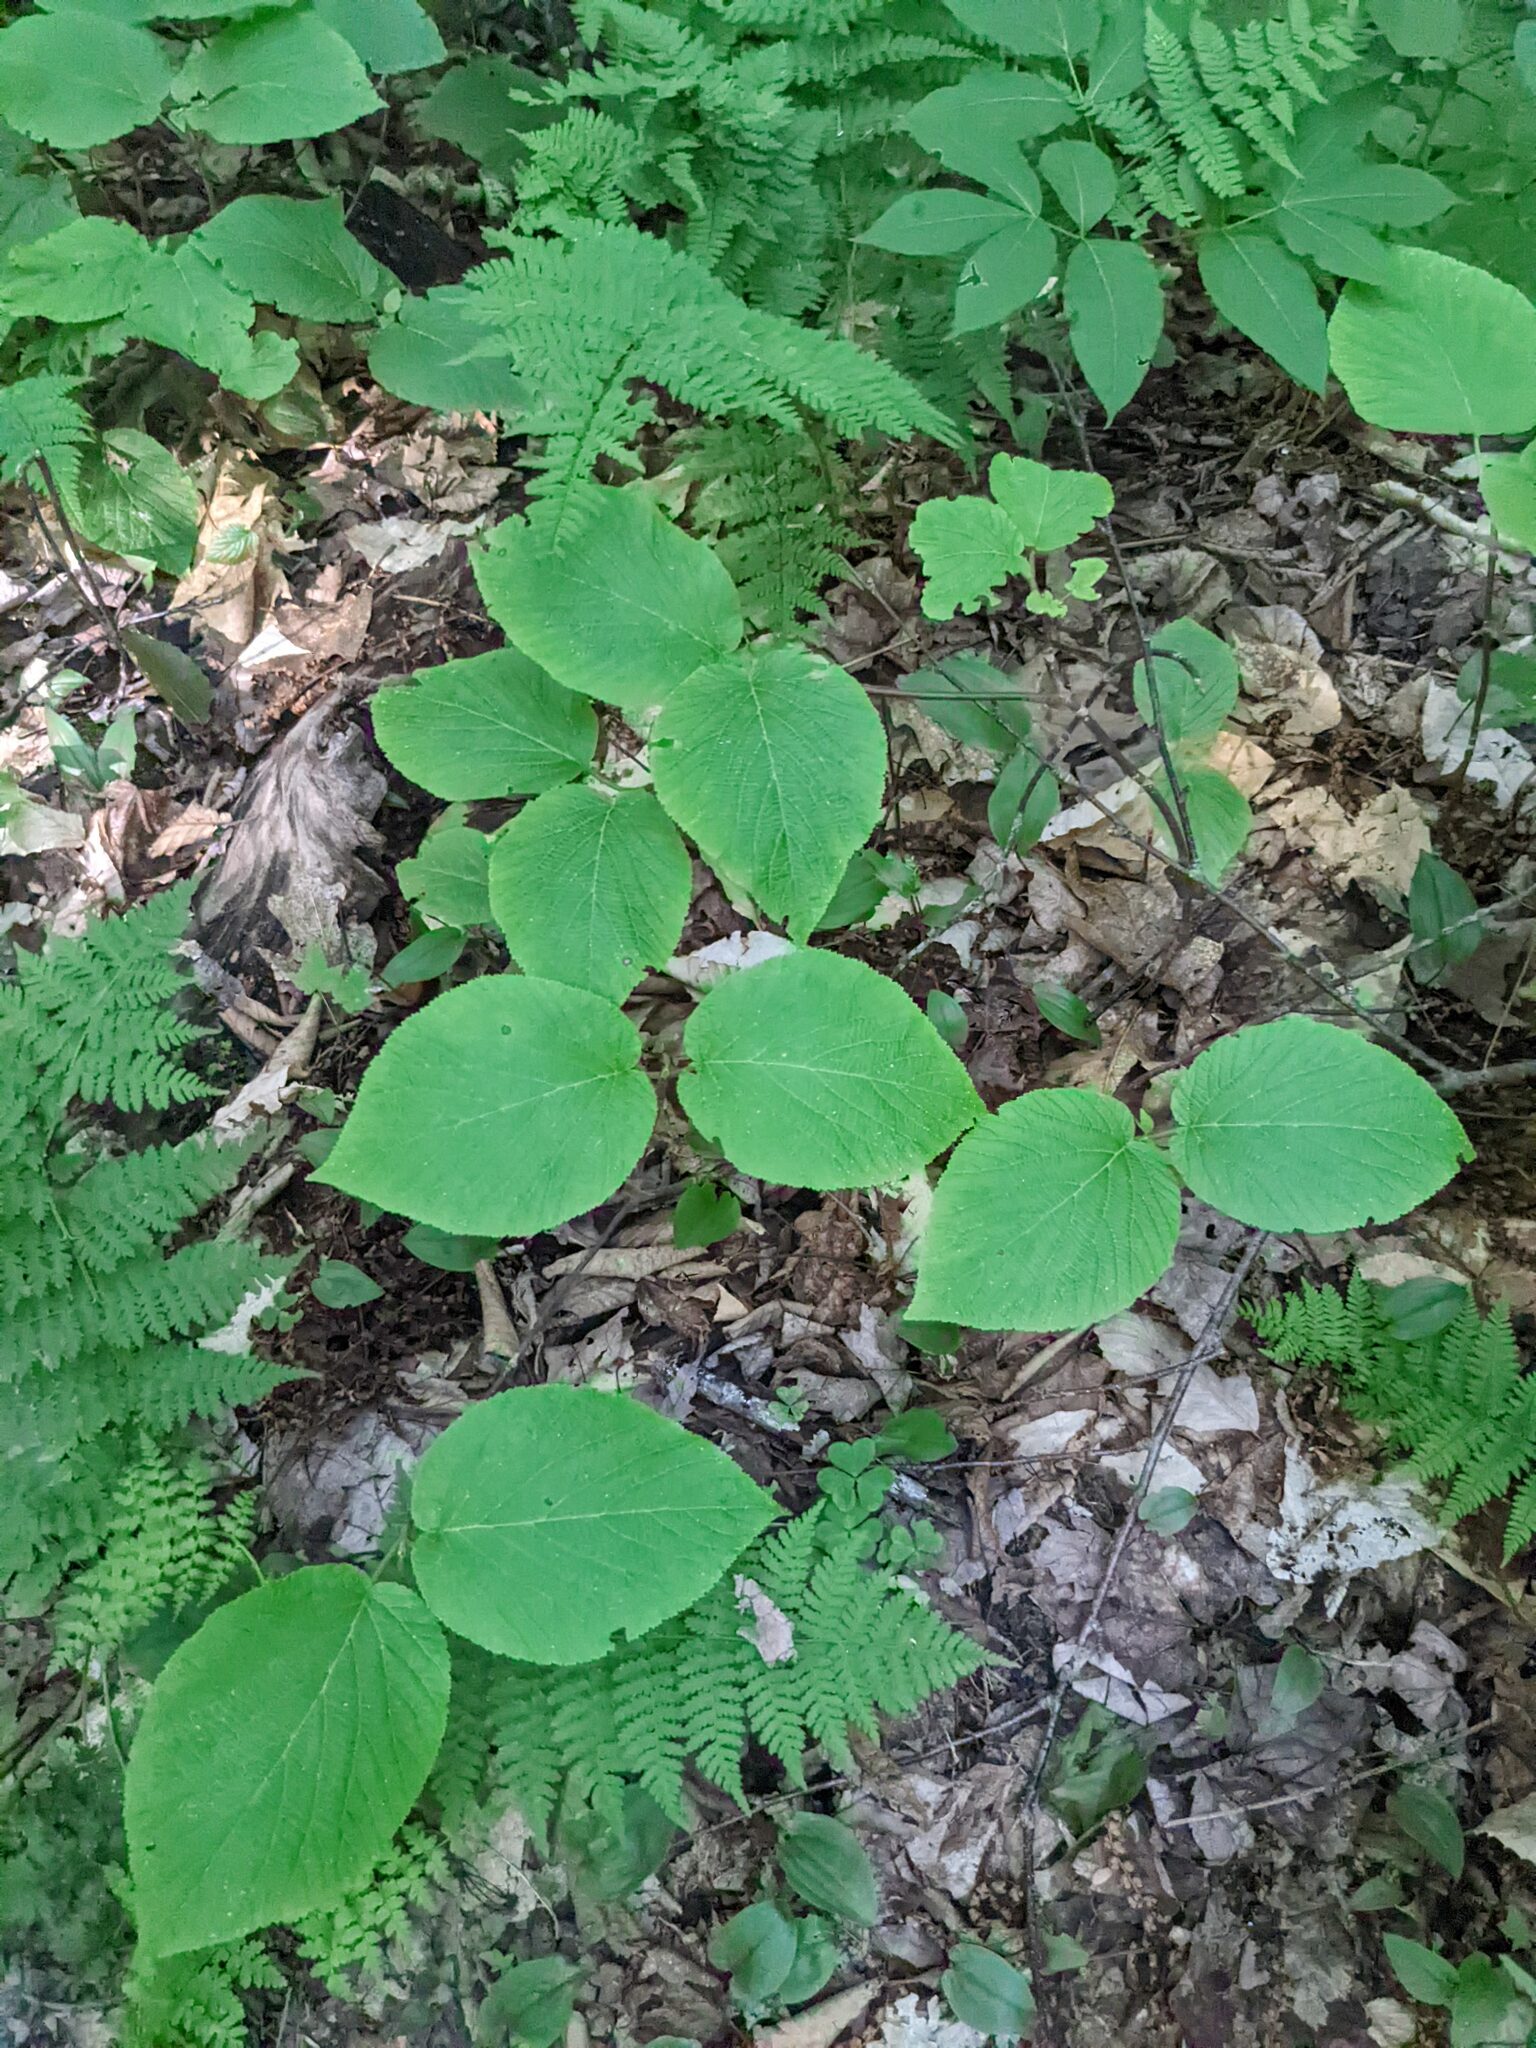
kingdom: Plantae
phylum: Tracheophyta
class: Magnoliopsida
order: Dipsacales
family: Viburnaceae
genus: Viburnum
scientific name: Viburnum lantanoides
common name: Hobblebush
